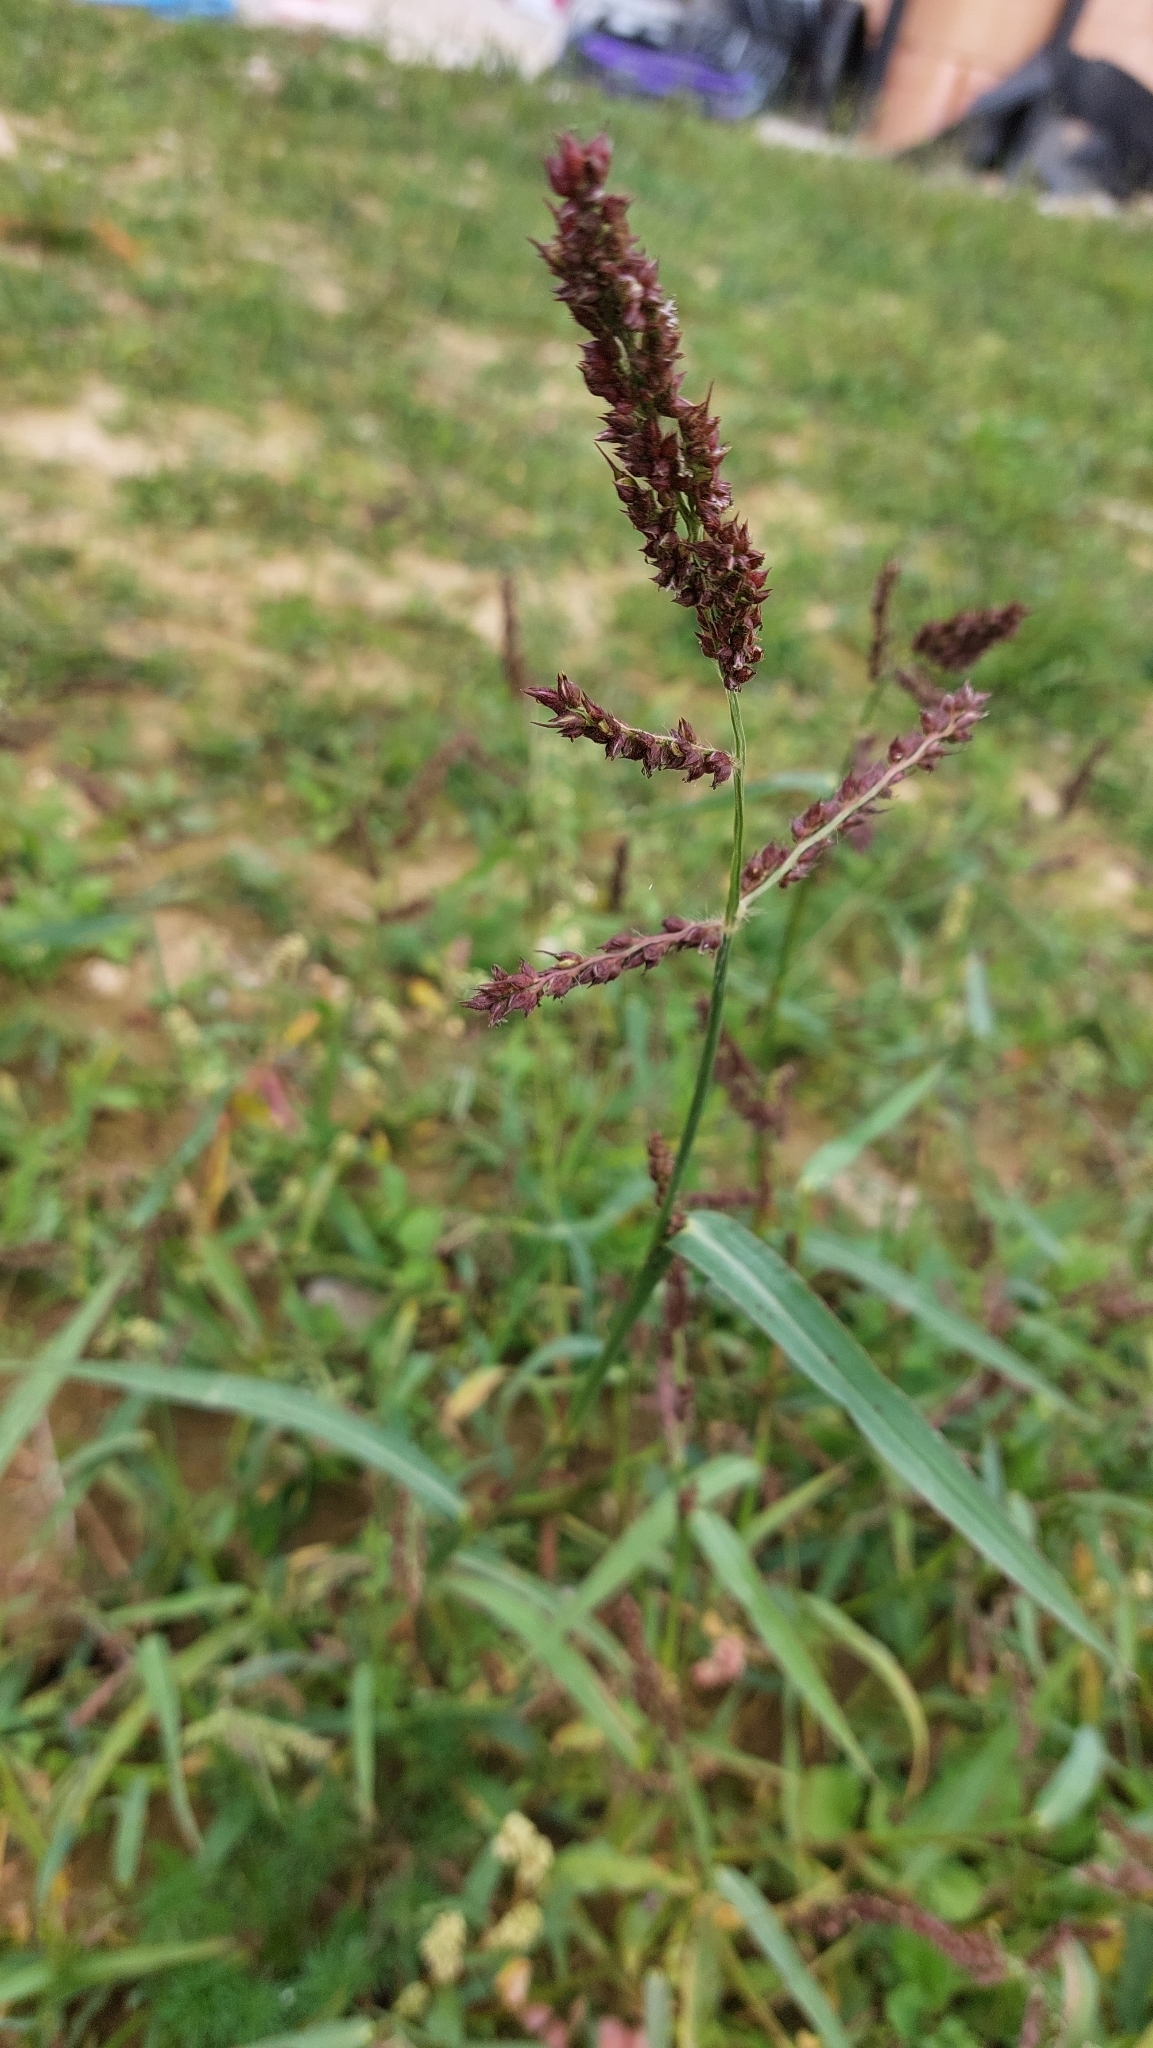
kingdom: Plantae
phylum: Tracheophyta
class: Liliopsida
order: Poales
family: Poaceae
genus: Echinochloa
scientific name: Echinochloa crus-galli
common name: Cockspur
